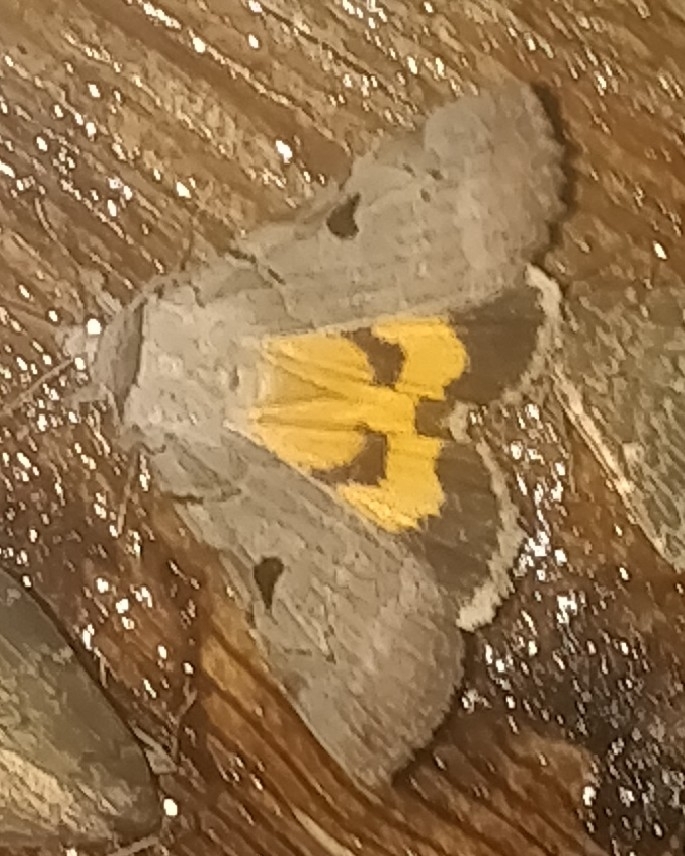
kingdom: Animalia
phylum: Arthropoda
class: Insecta
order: Lepidoptera
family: Erebidae
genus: Catocala
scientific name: Catocala nuptialis
